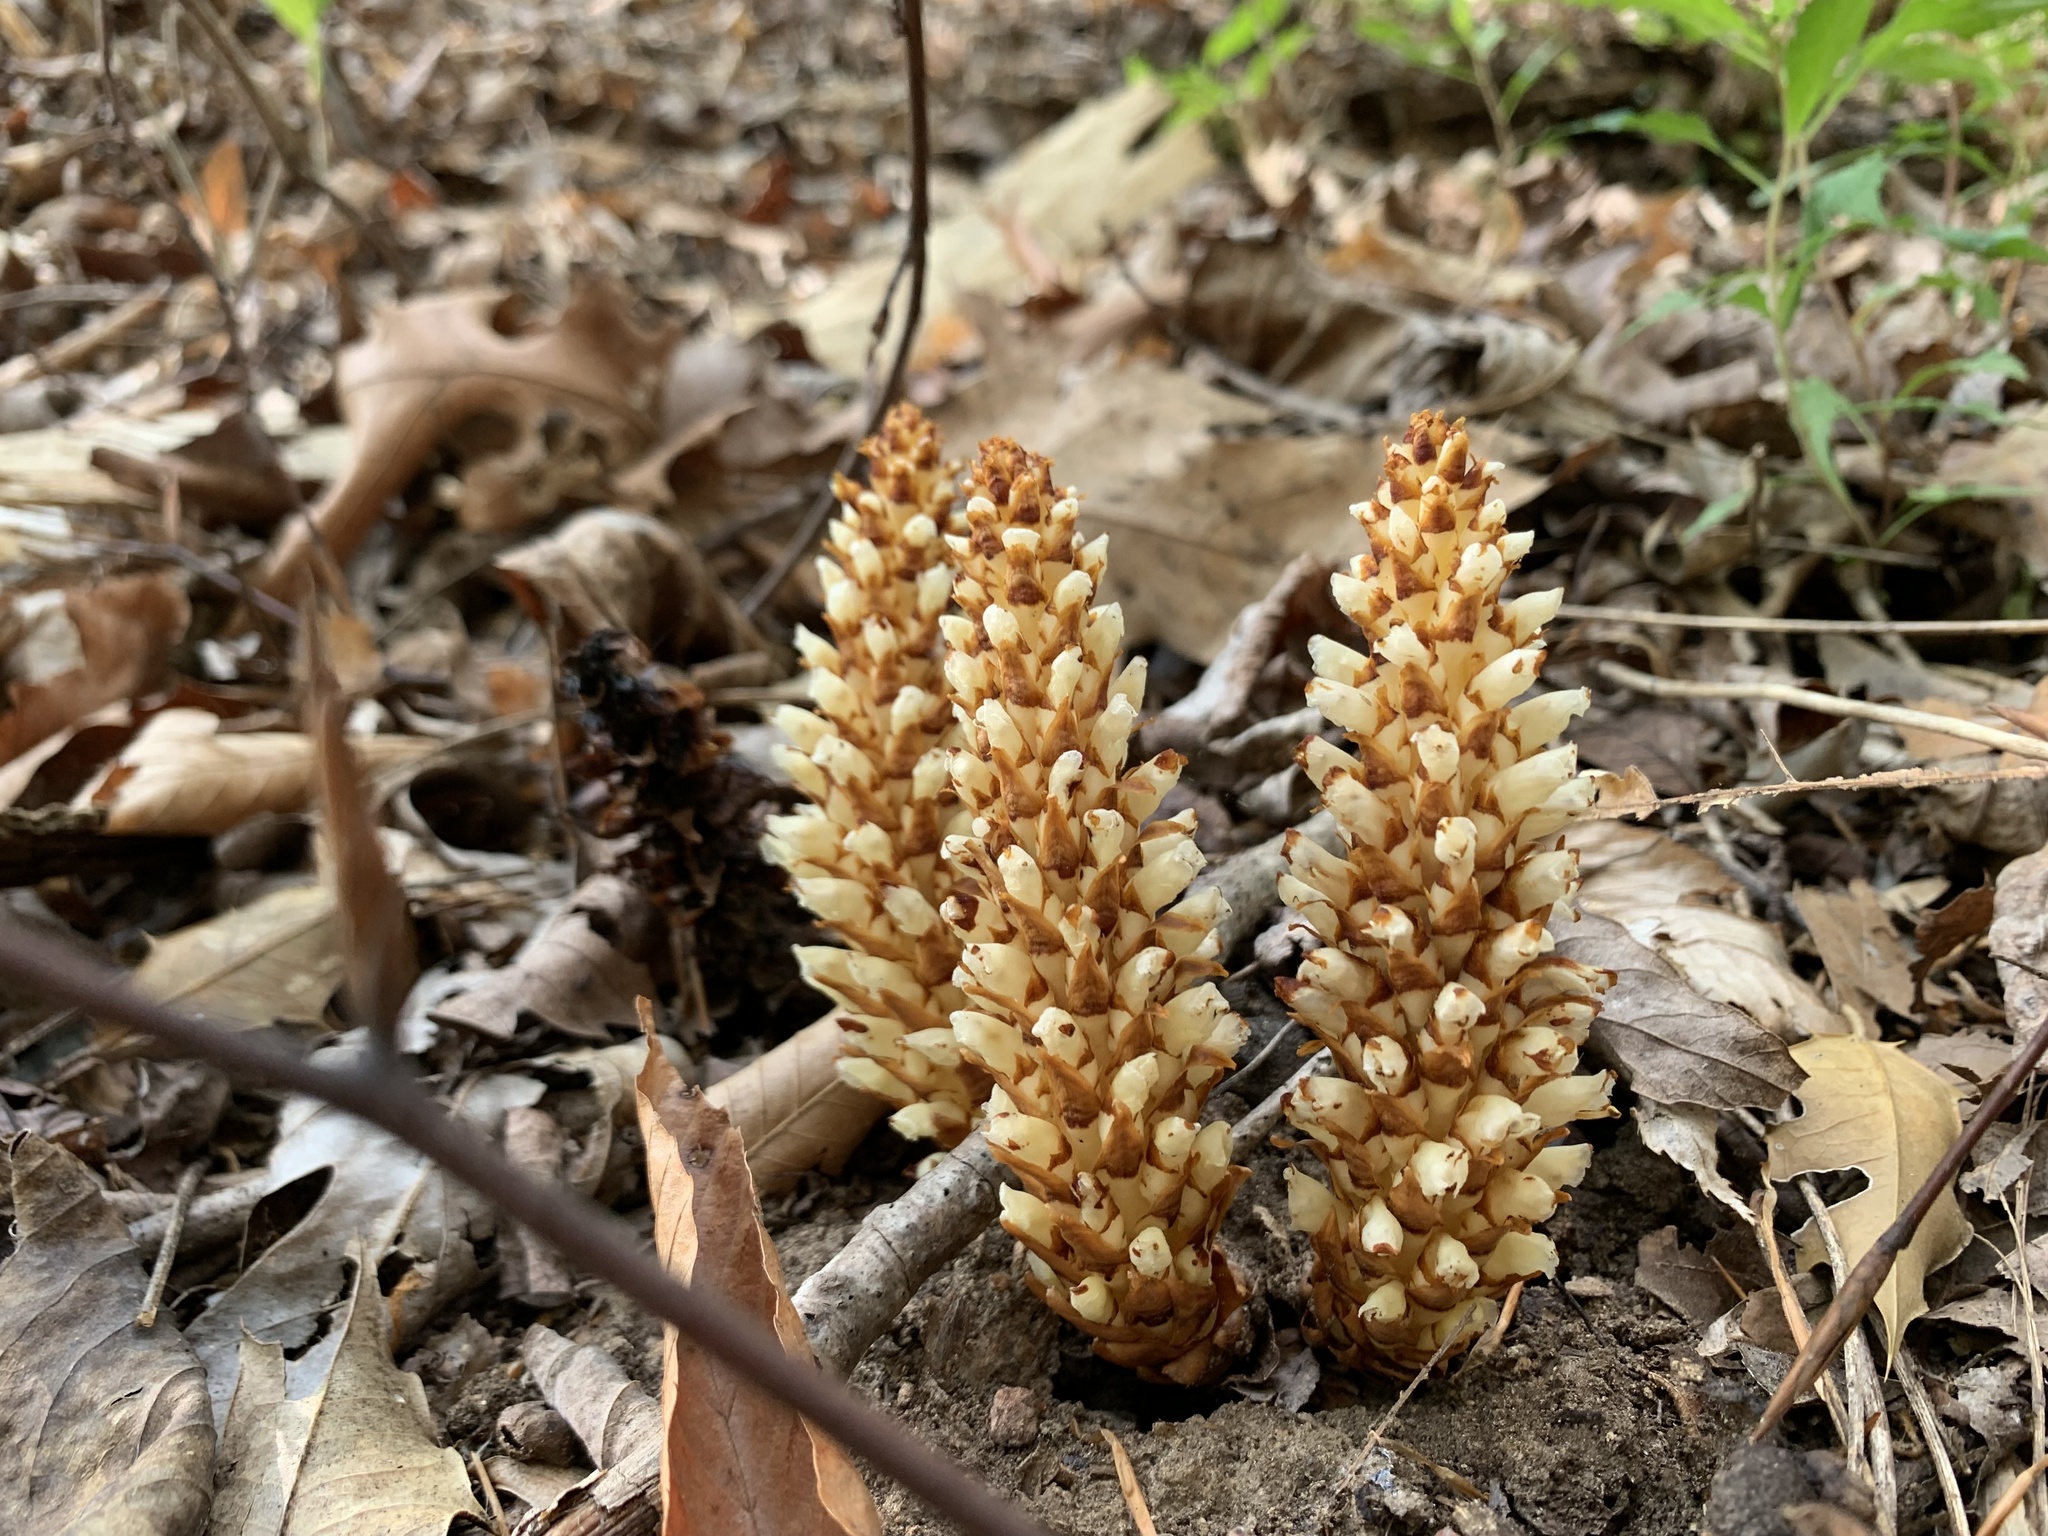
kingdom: Plantae
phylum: Tracheophyta
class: Magnoliopsida
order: Lamiales
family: Orobanchaceae
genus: Conopholis
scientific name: Conopholis americana
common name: American cancer-root
